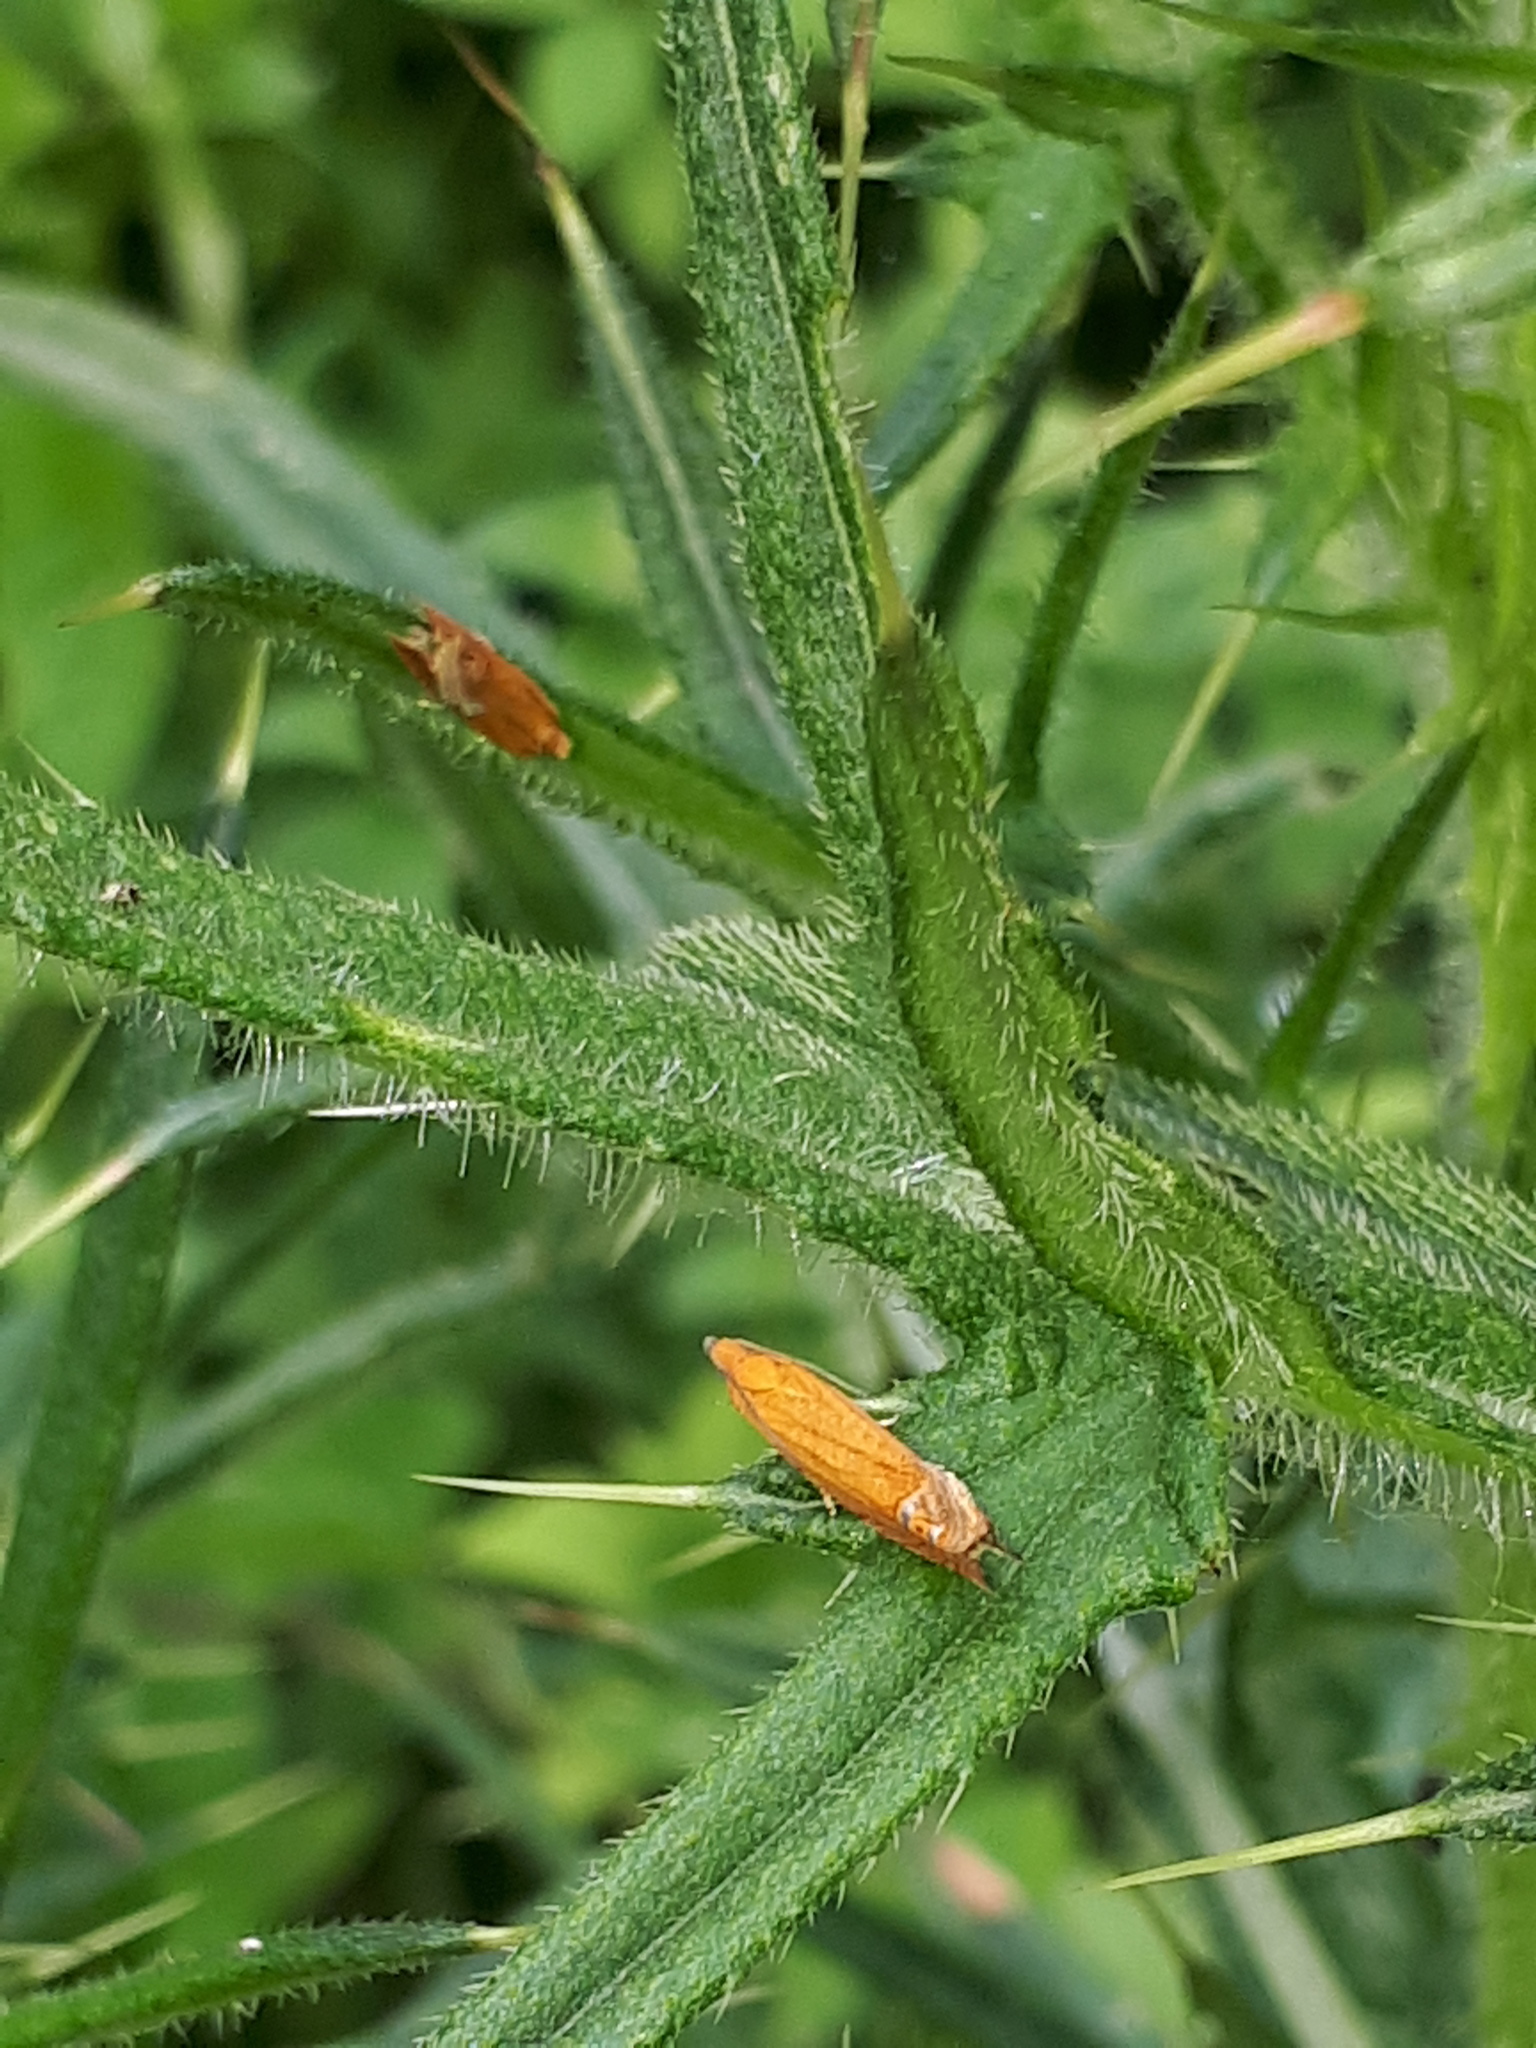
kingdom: Animalia
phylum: Arthropoda
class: Insecta
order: Lepidoptera
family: Tortricidae
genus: Lathronympha
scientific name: Lathronympha strigana
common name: Red piercer
